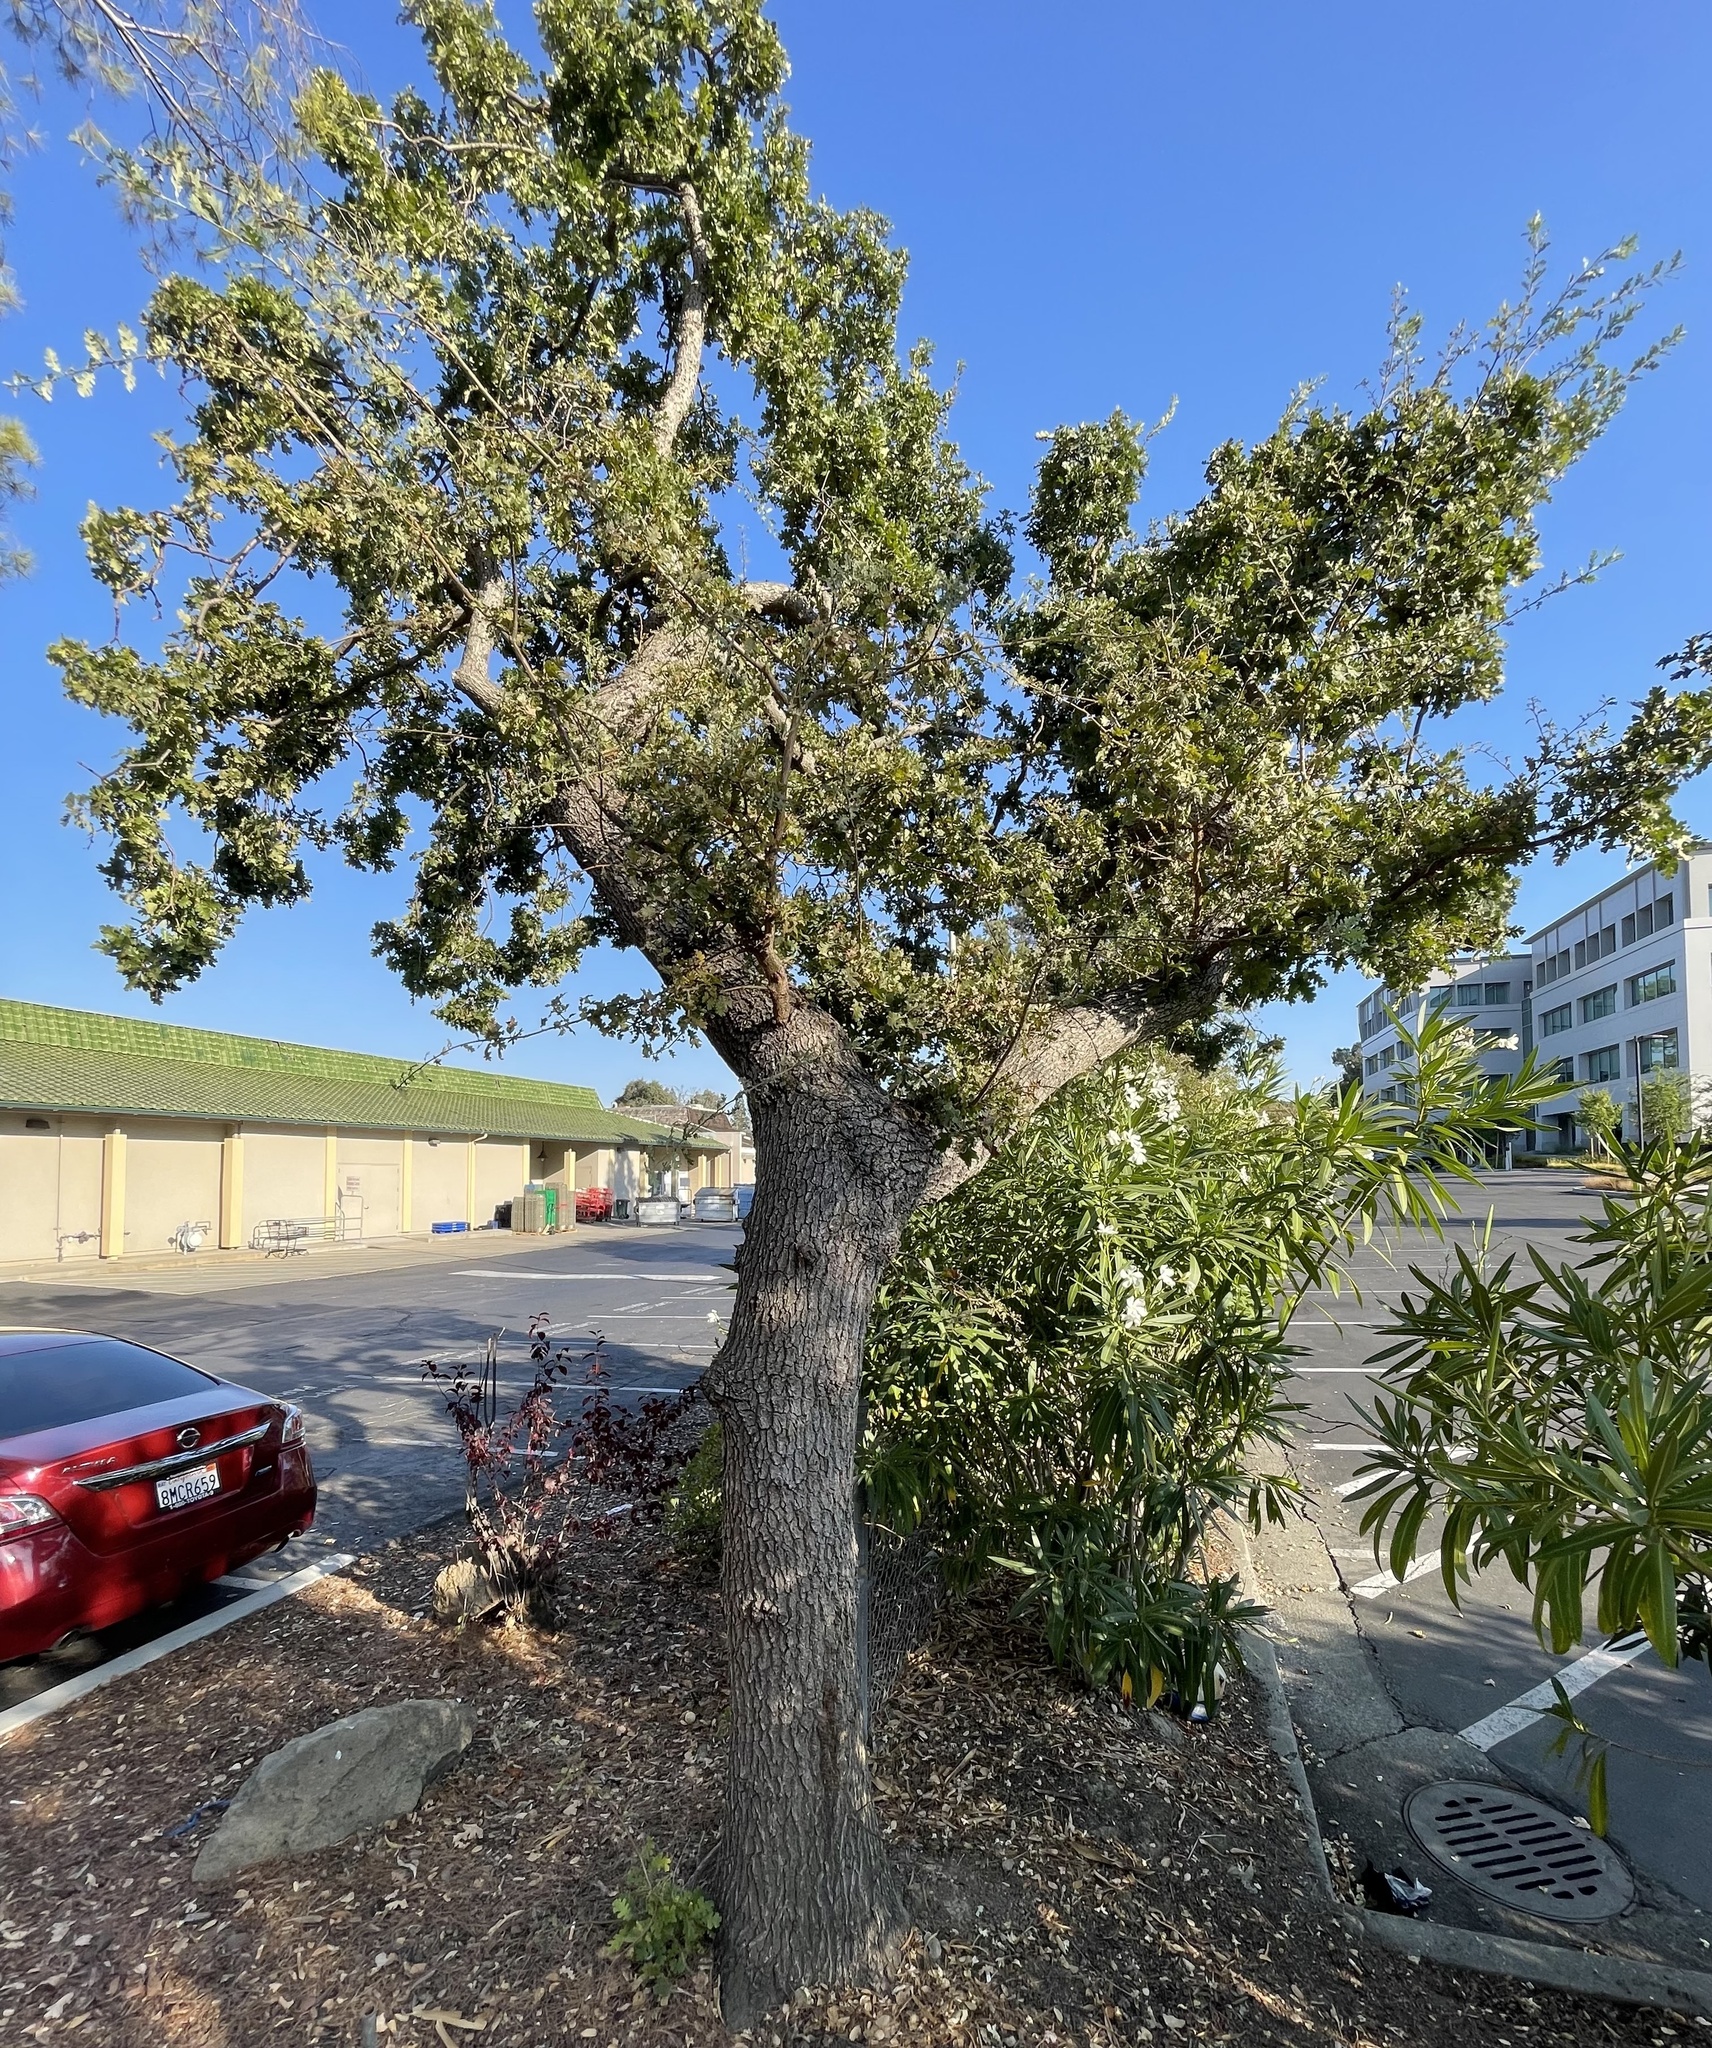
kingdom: Plantae
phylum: Tracheophyta
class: Magnoliopsida
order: Fagales
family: Fagaceae
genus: Quercus
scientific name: Quercus lobata
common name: Valley oak
